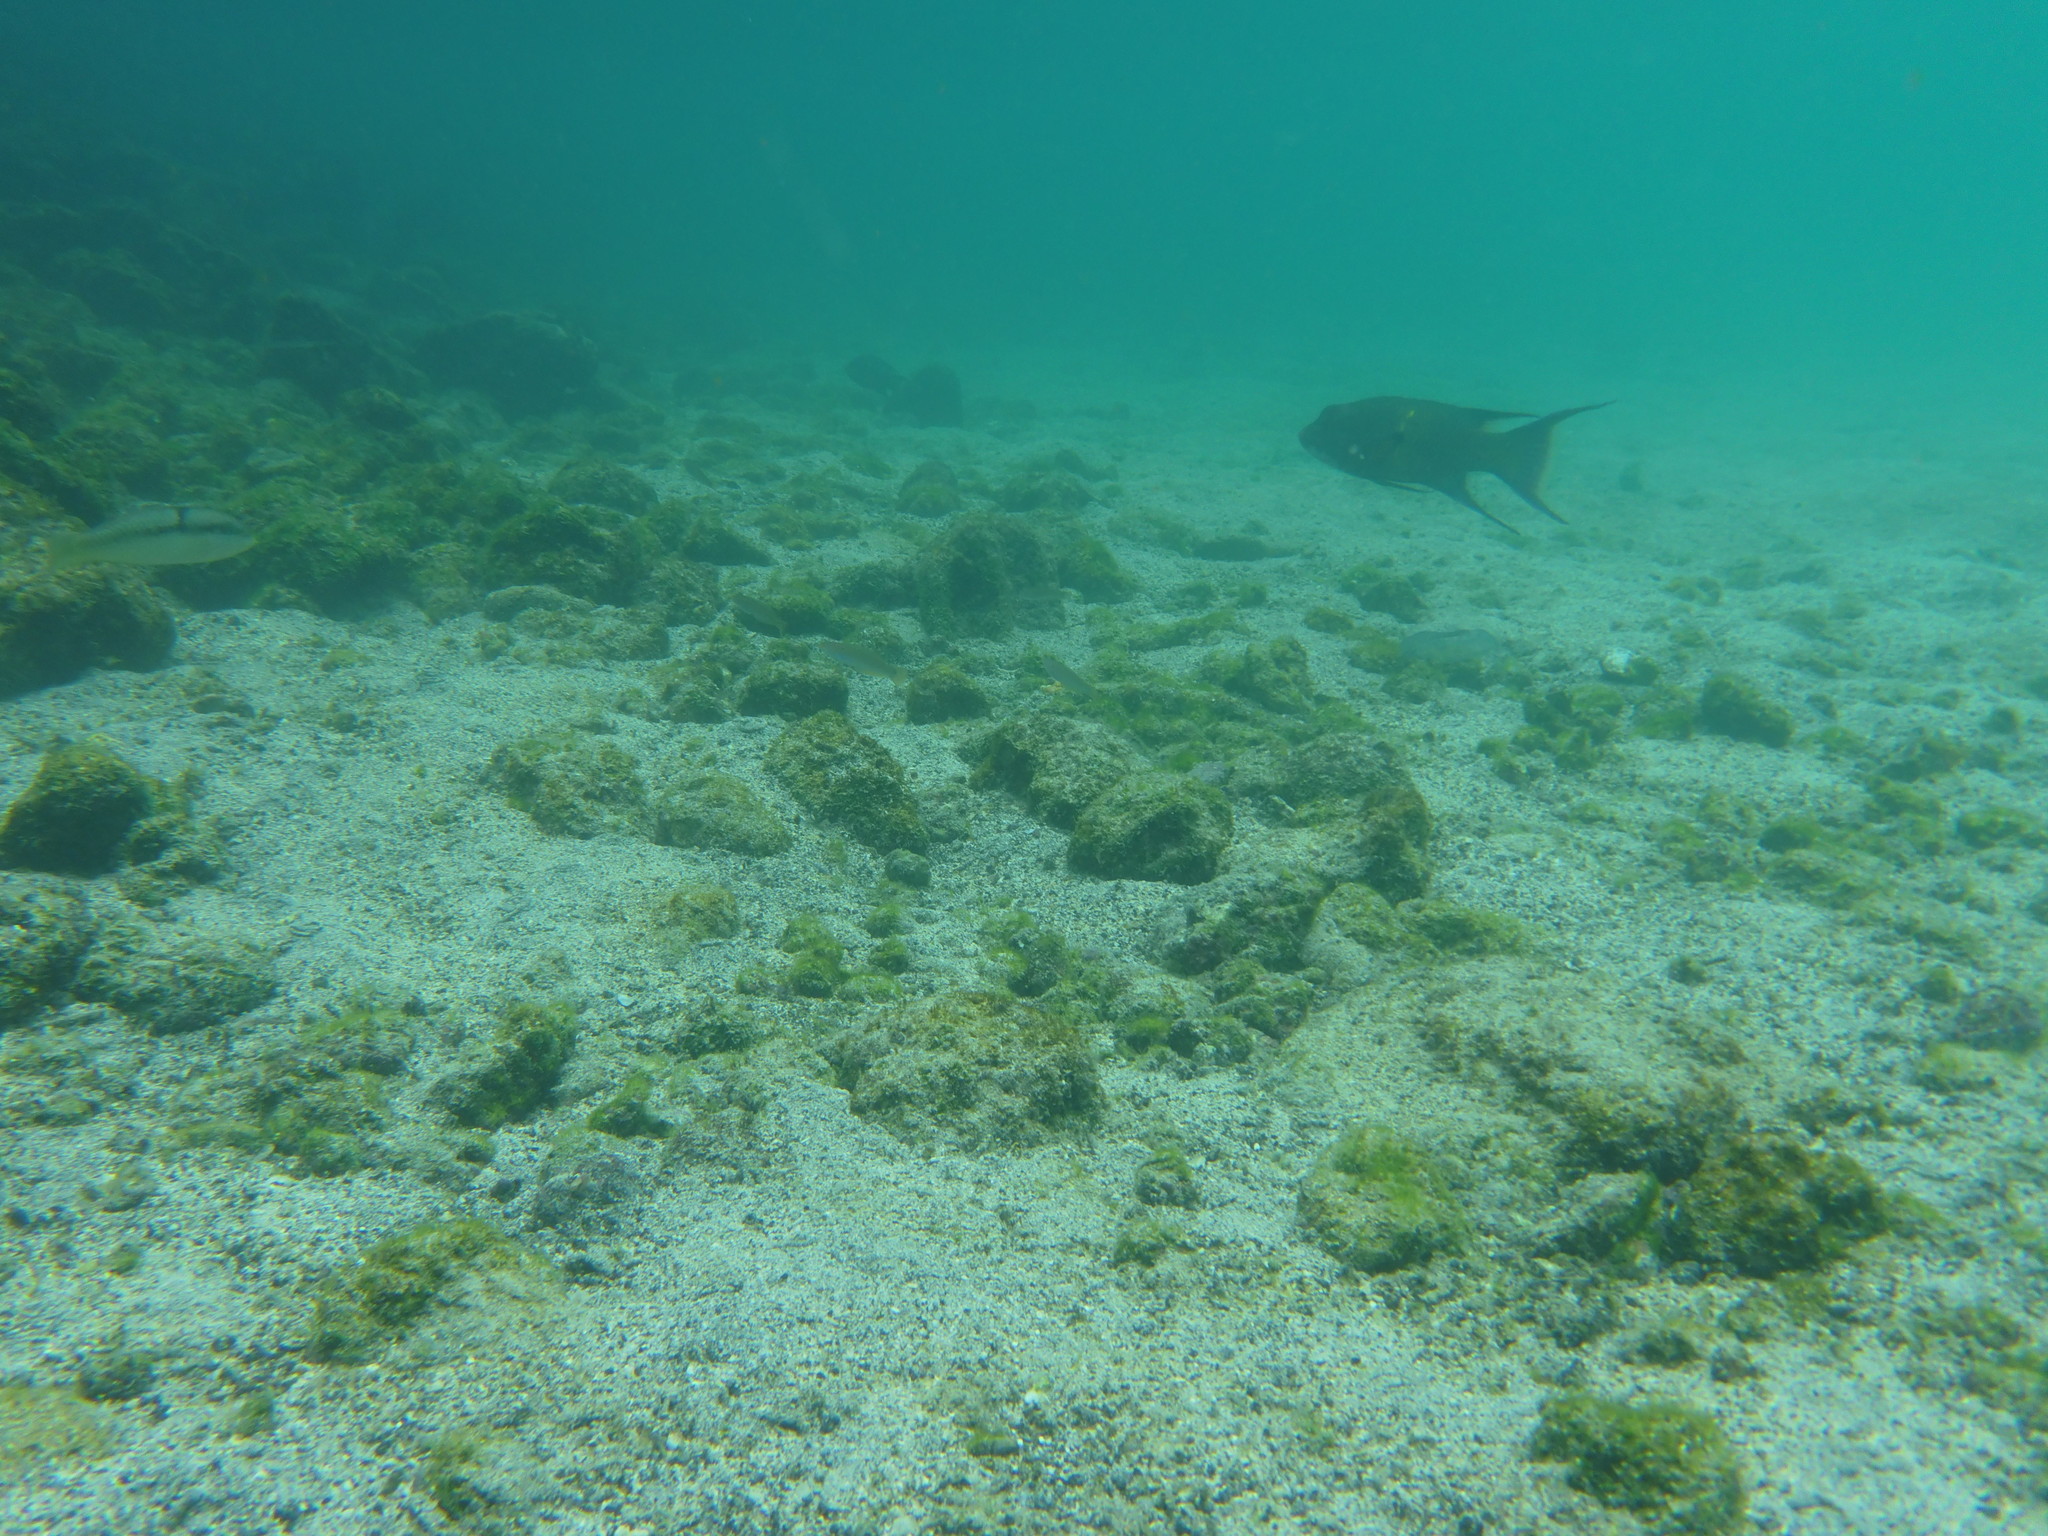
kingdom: Animalia
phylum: Chordata
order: Perciformes
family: Labridae
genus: Bodianus
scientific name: Bodianus diplotaenia
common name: Mexican hogfish
